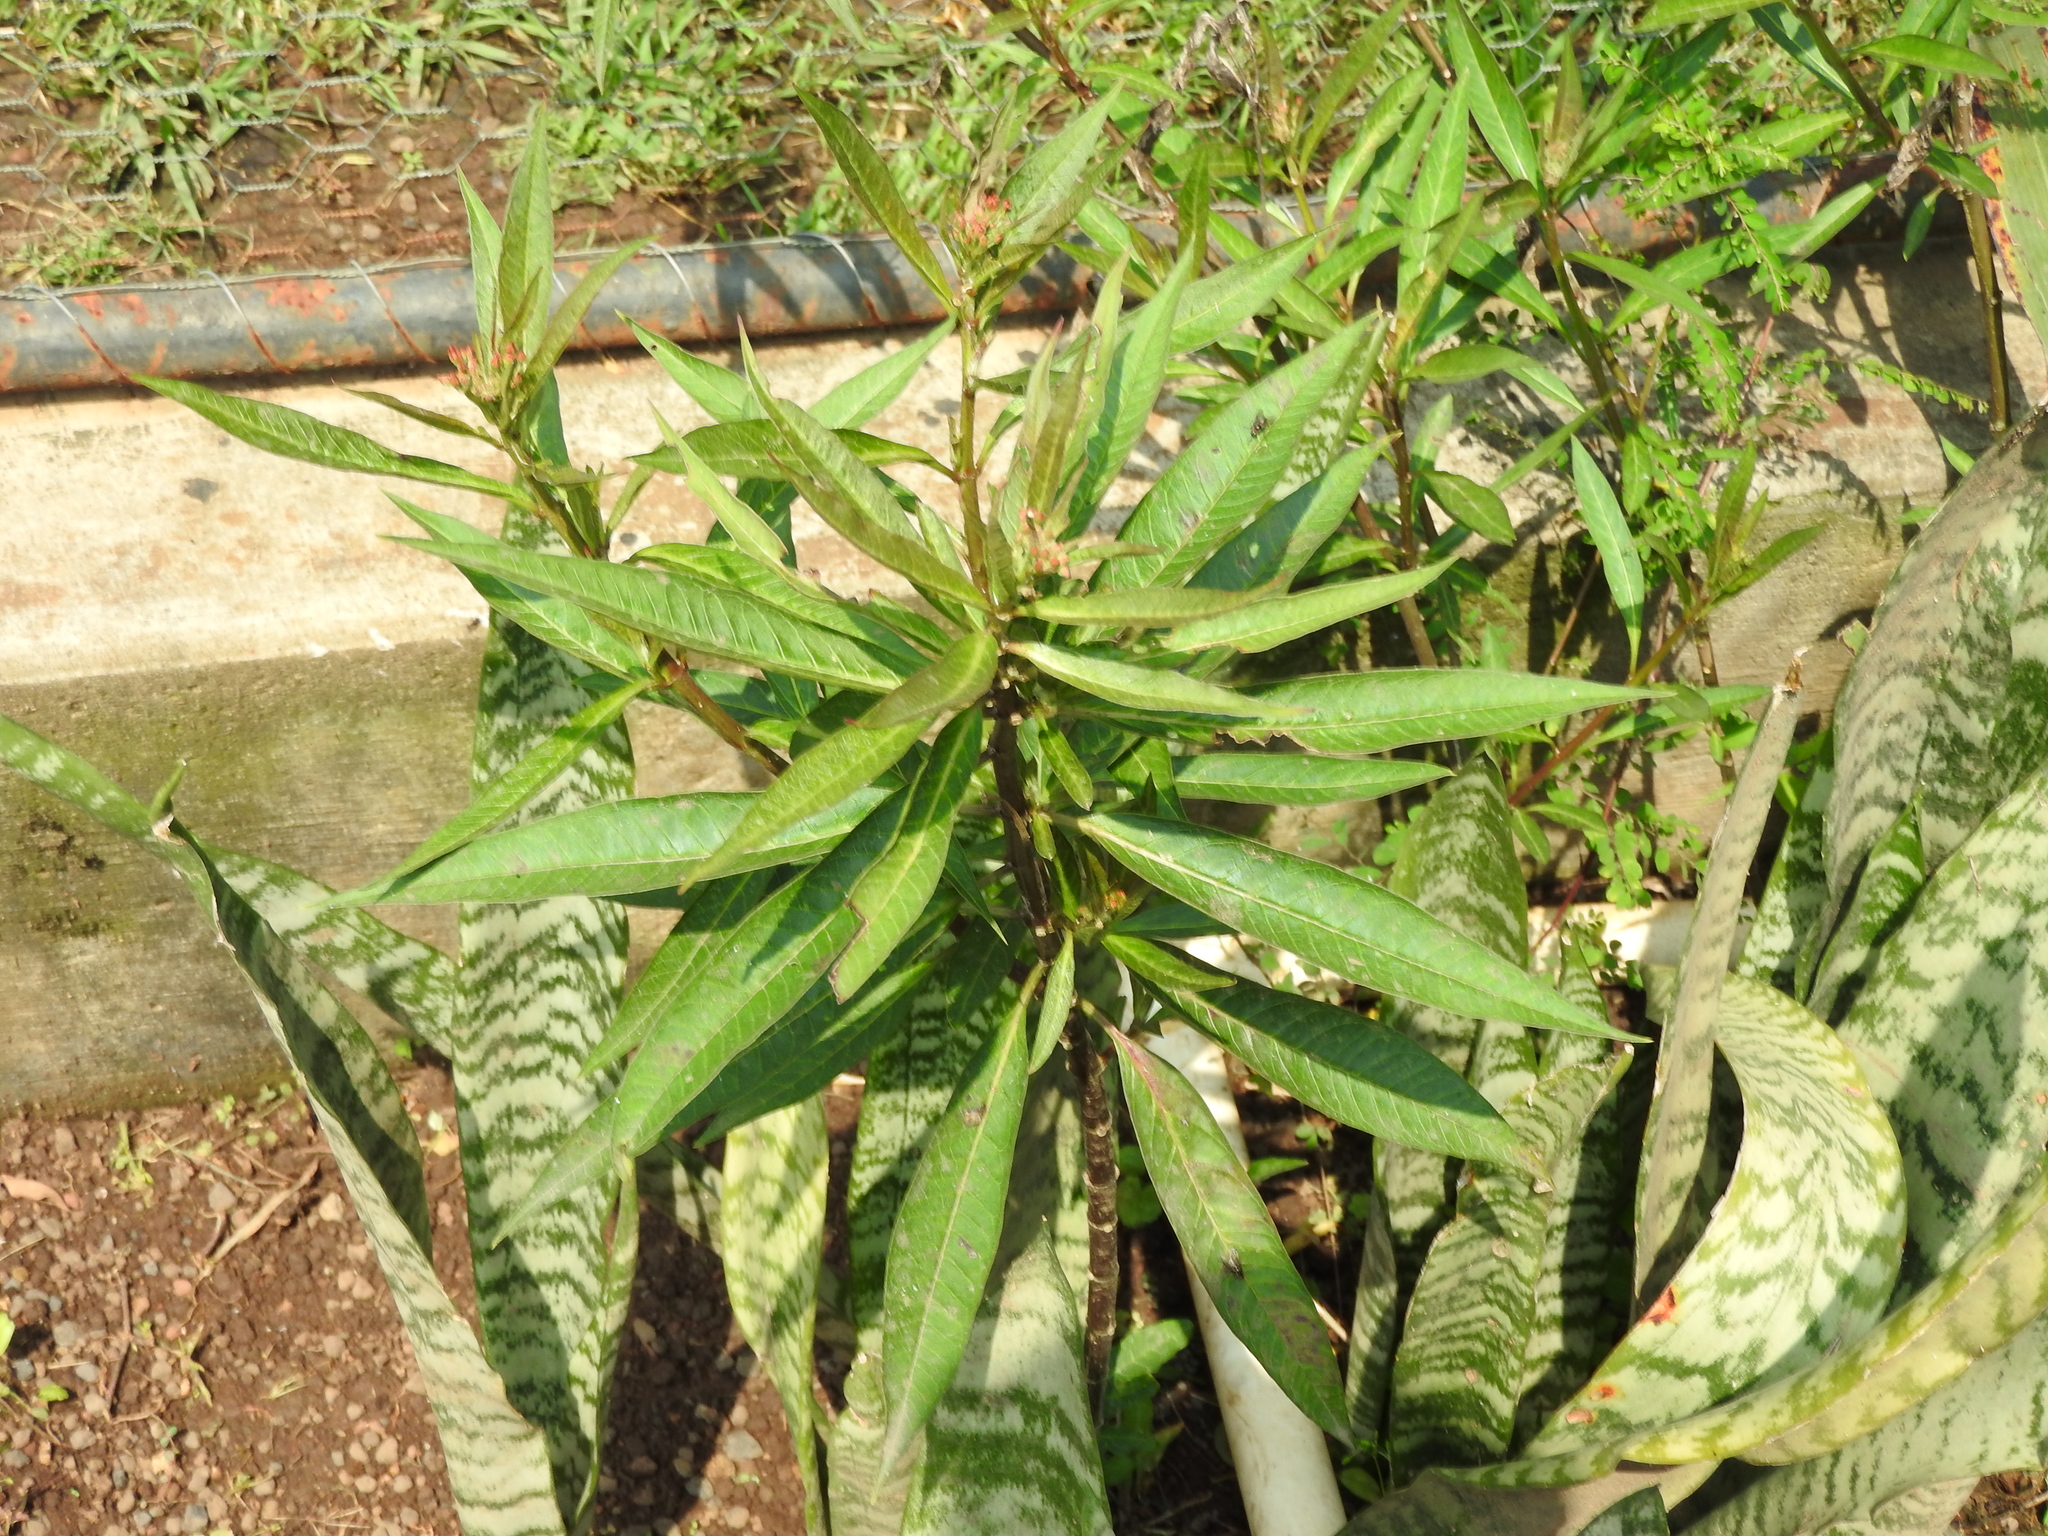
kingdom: Plantae
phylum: Tracheophyta
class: Magnoliopsida
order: Gentianales
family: Apocynaceae
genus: Asclepias
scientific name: Asclepias curassavica
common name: Bloodflower
